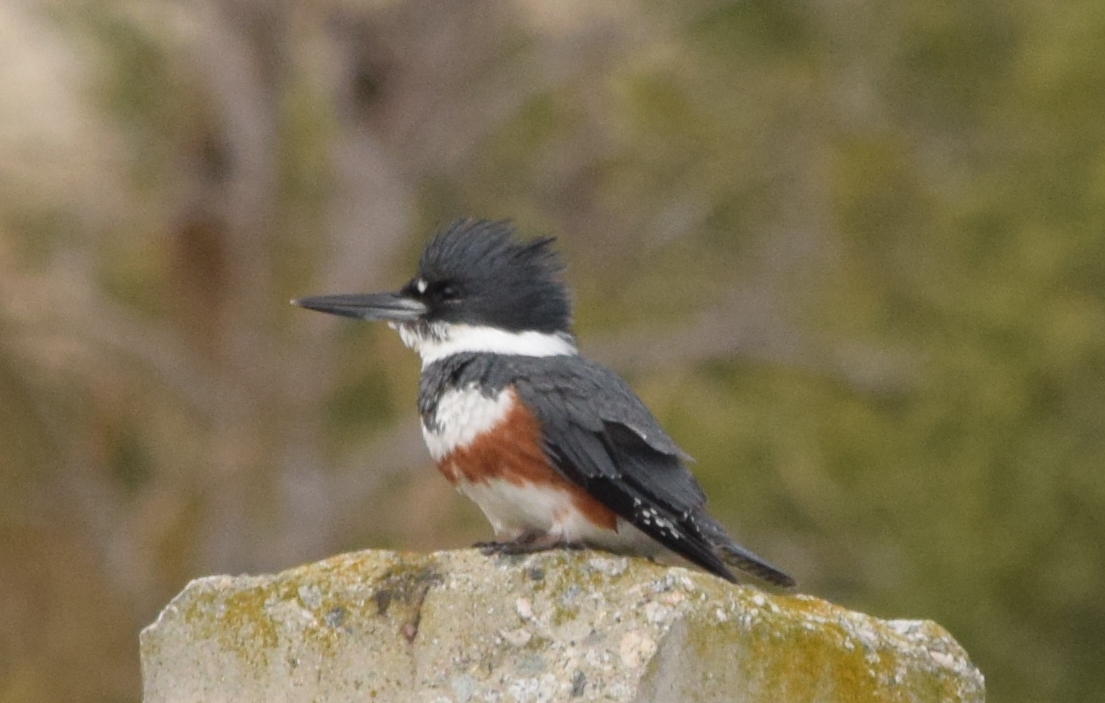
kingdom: Animalia
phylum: Chordata
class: Aves
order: Coraciiformes
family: Alcedinidae
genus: Megaceryle
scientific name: Megaceryle alcyon
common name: Belted kingfisher
